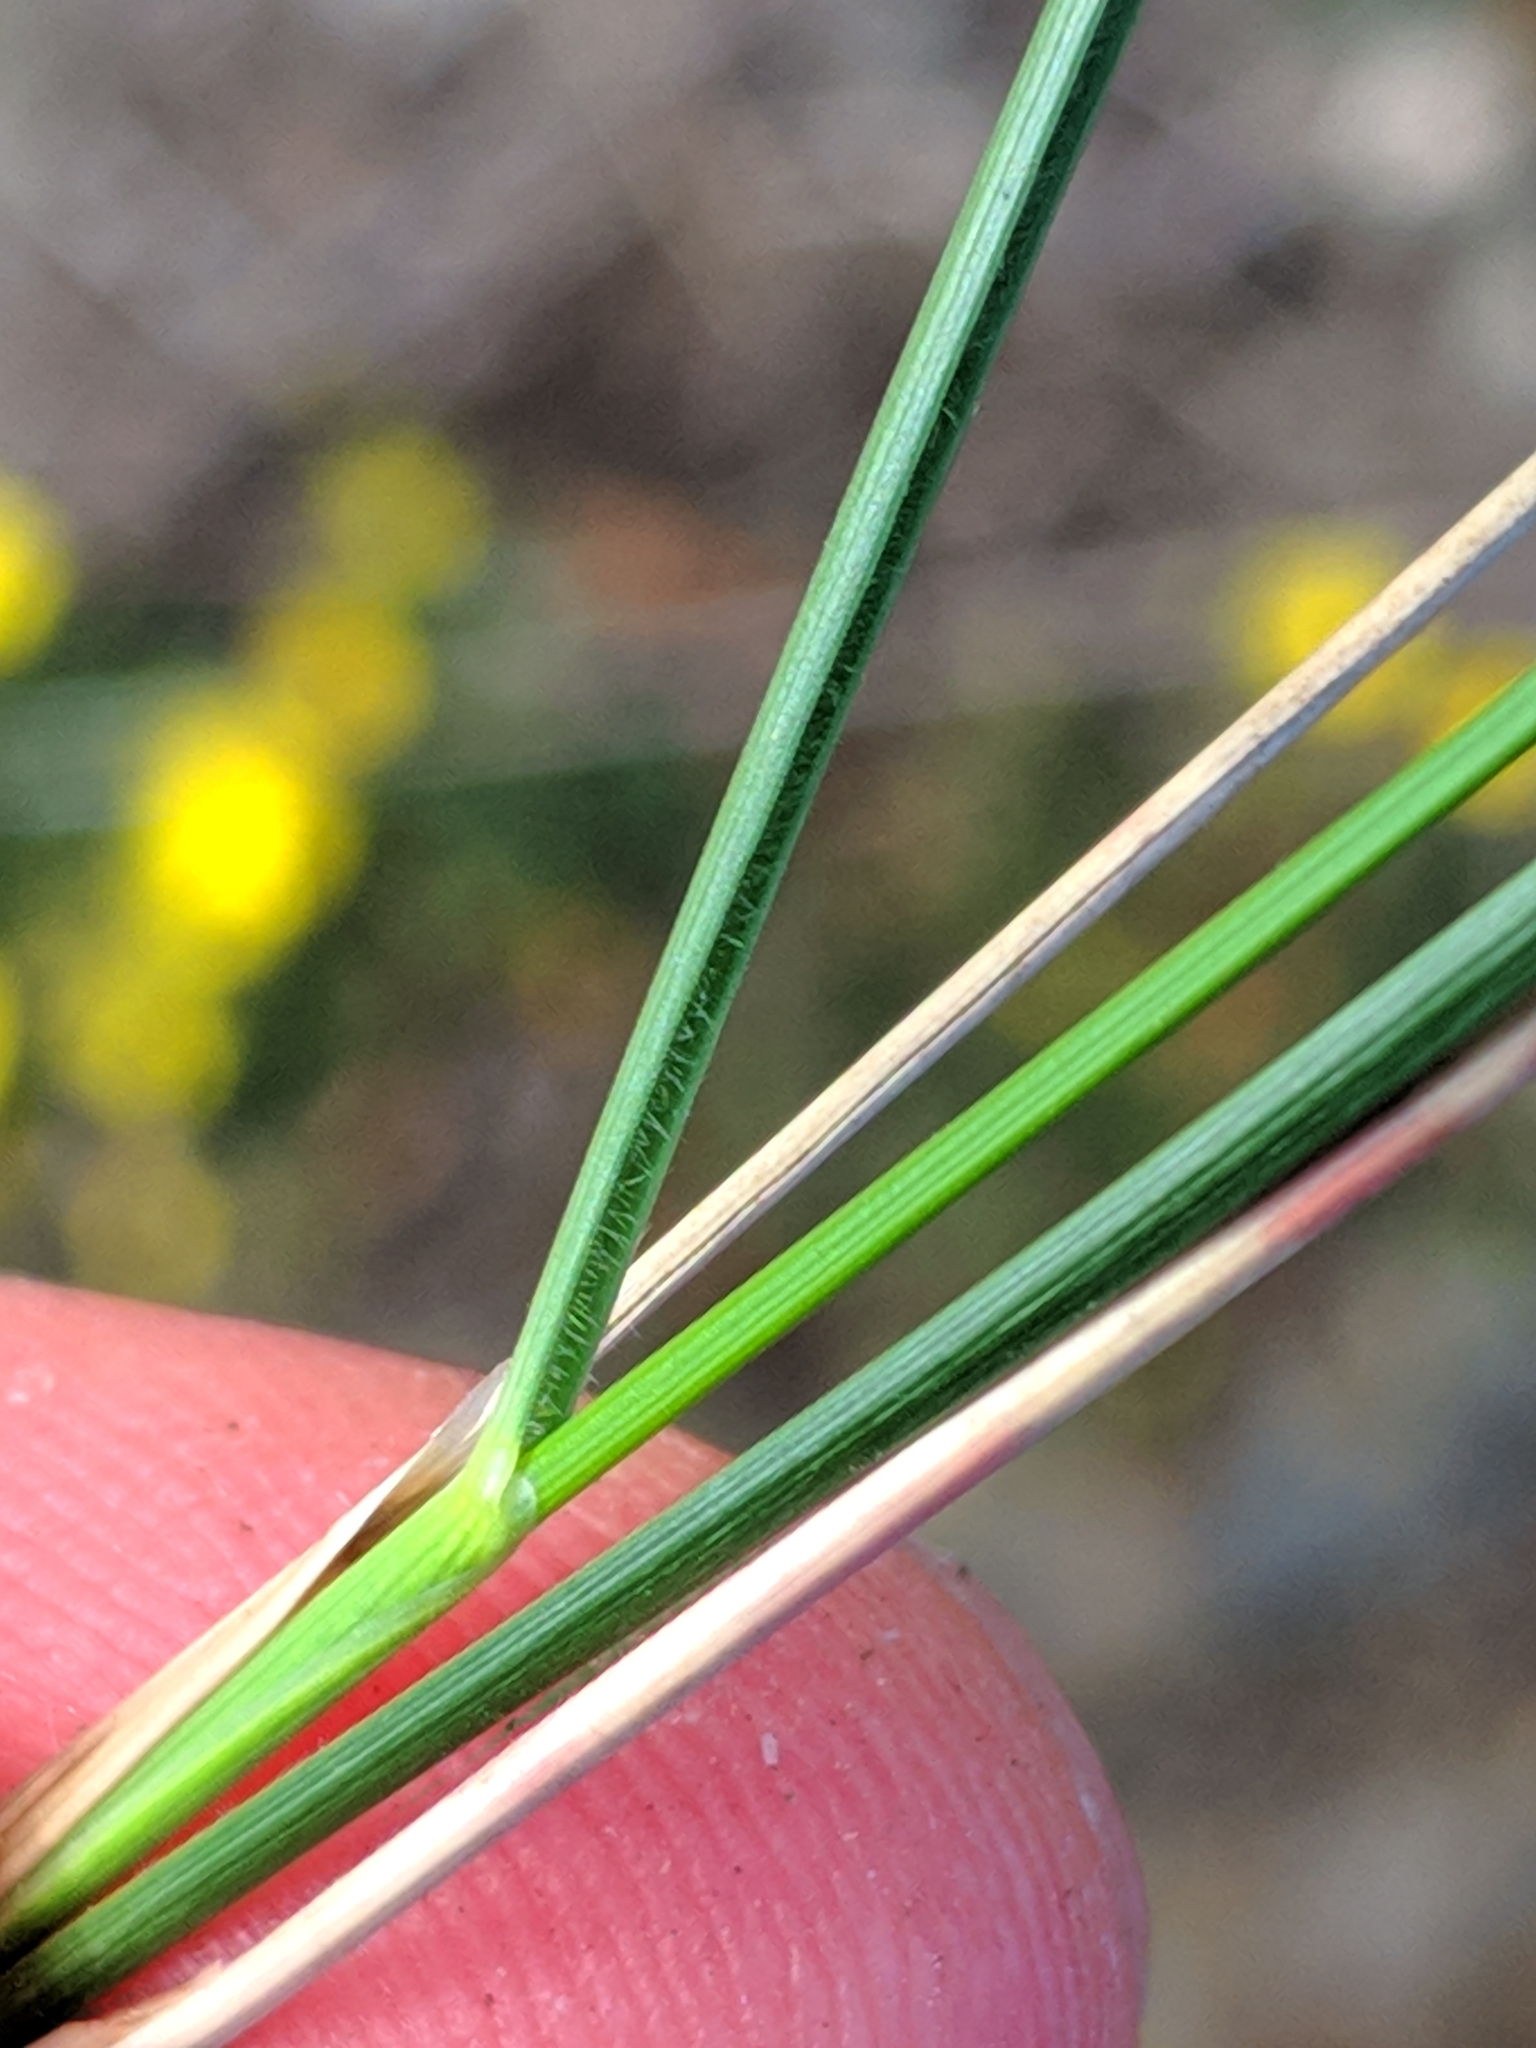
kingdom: Plantae
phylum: Tracheophyta
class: Liliopsida
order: Poales
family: Poaceae
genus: Stipa
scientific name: Stipa capillata
